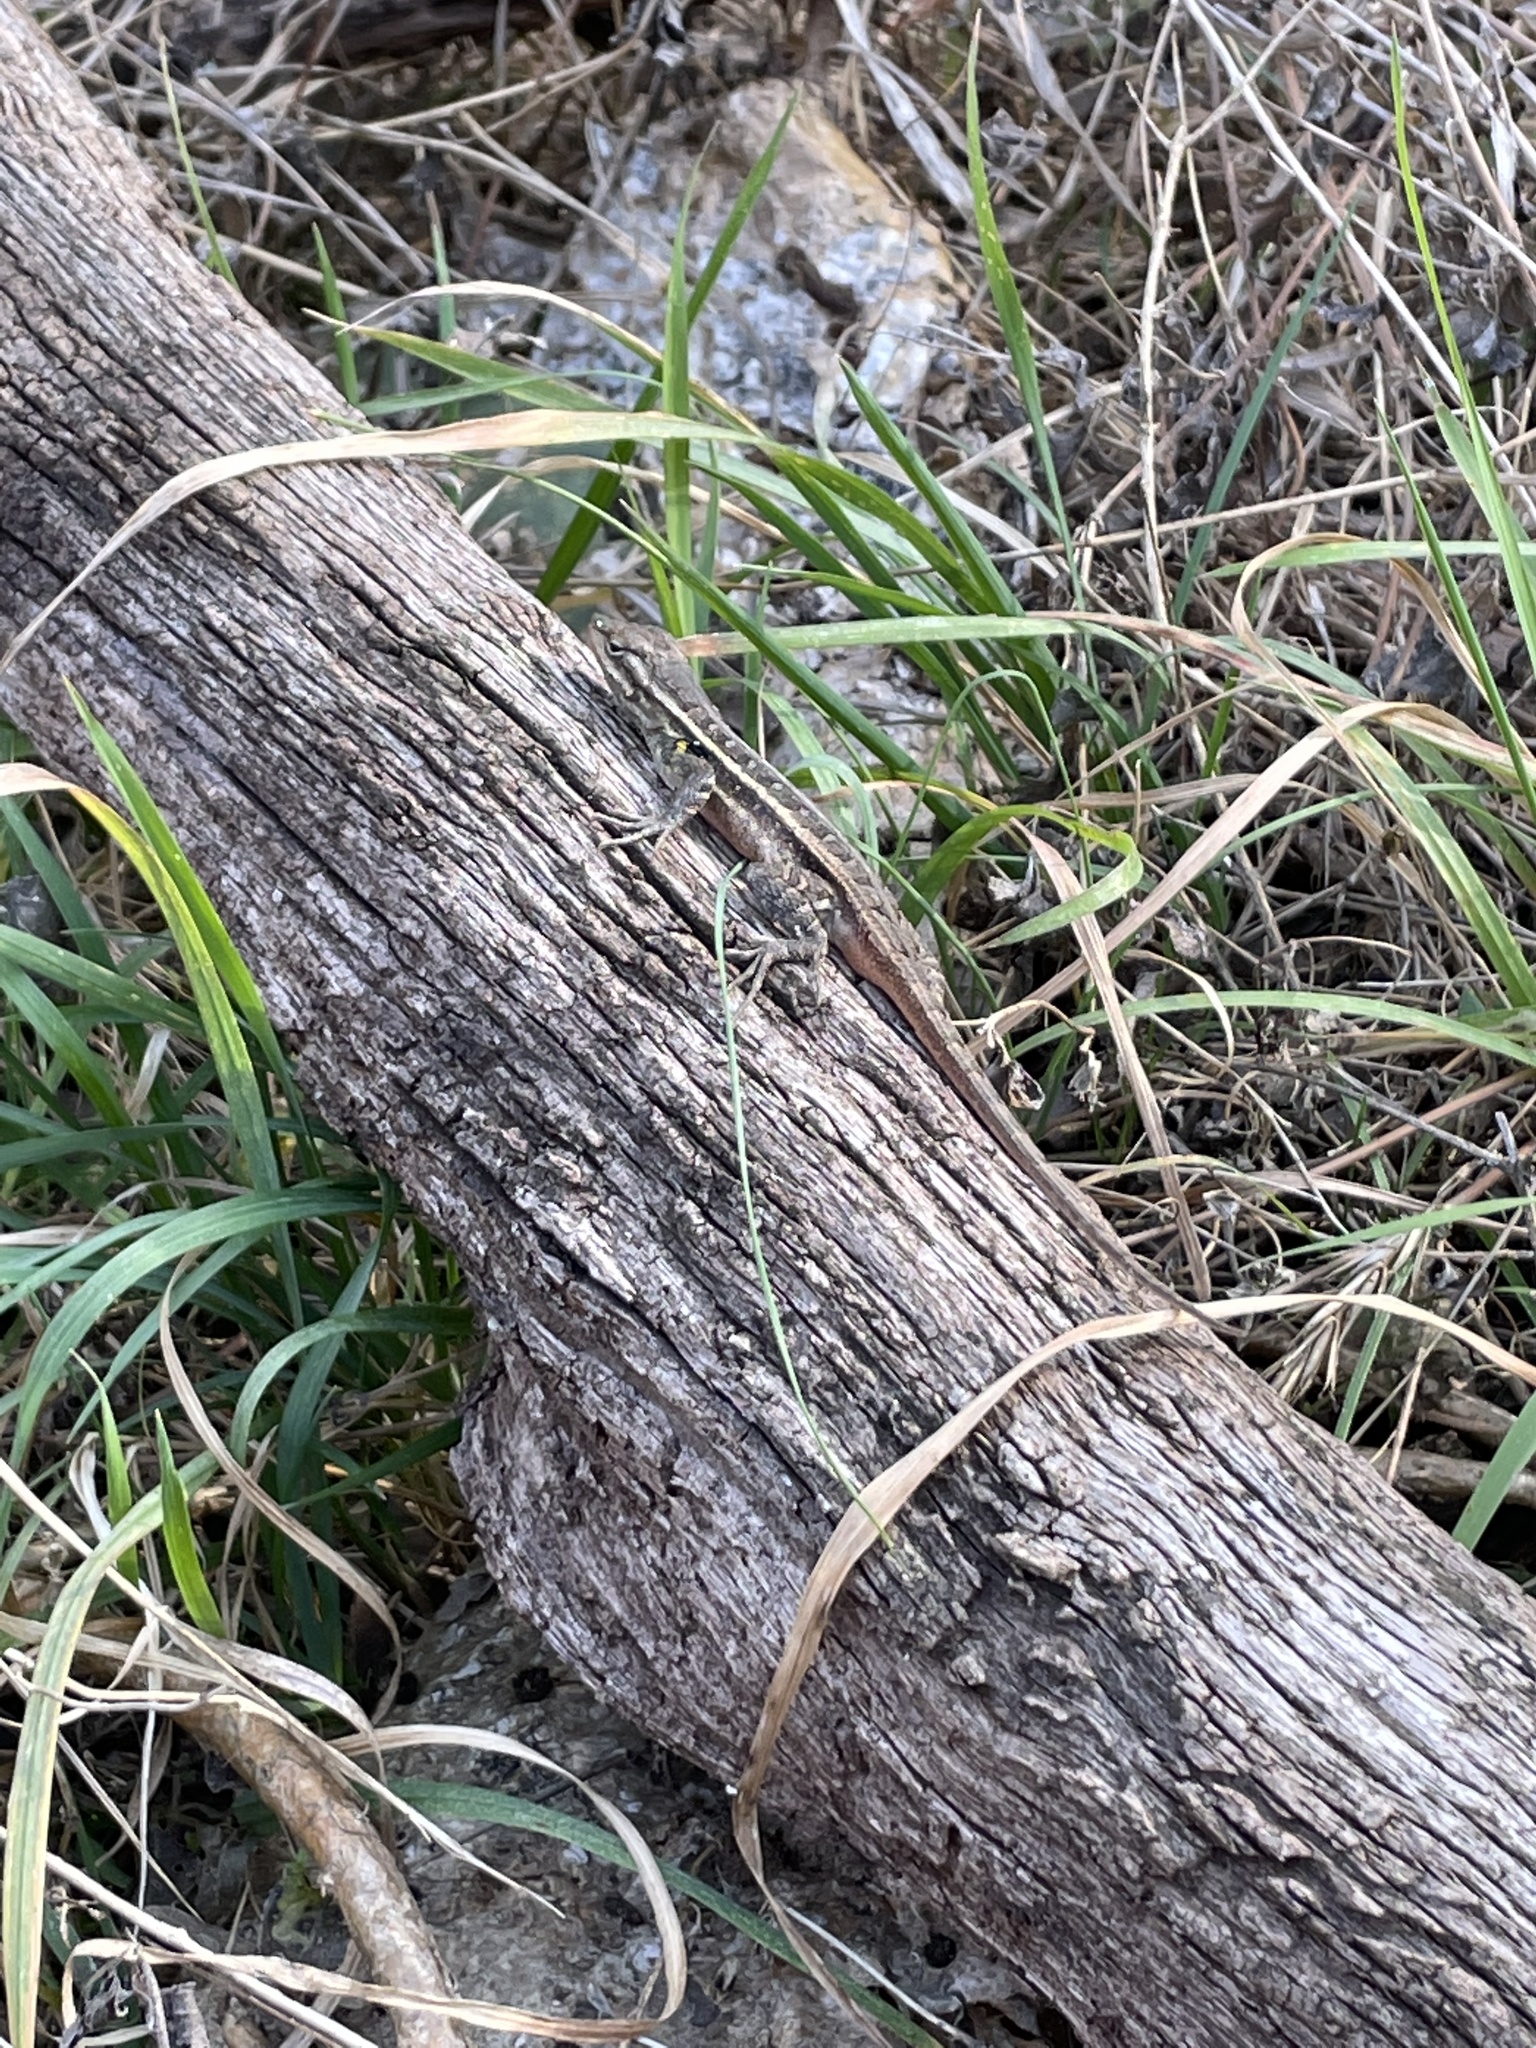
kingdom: Animalia
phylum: Chordata
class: Squamata
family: Phrynosomatidae
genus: Sceloporus
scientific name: Sceloporus variabilis
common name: Rosebelly lizard
